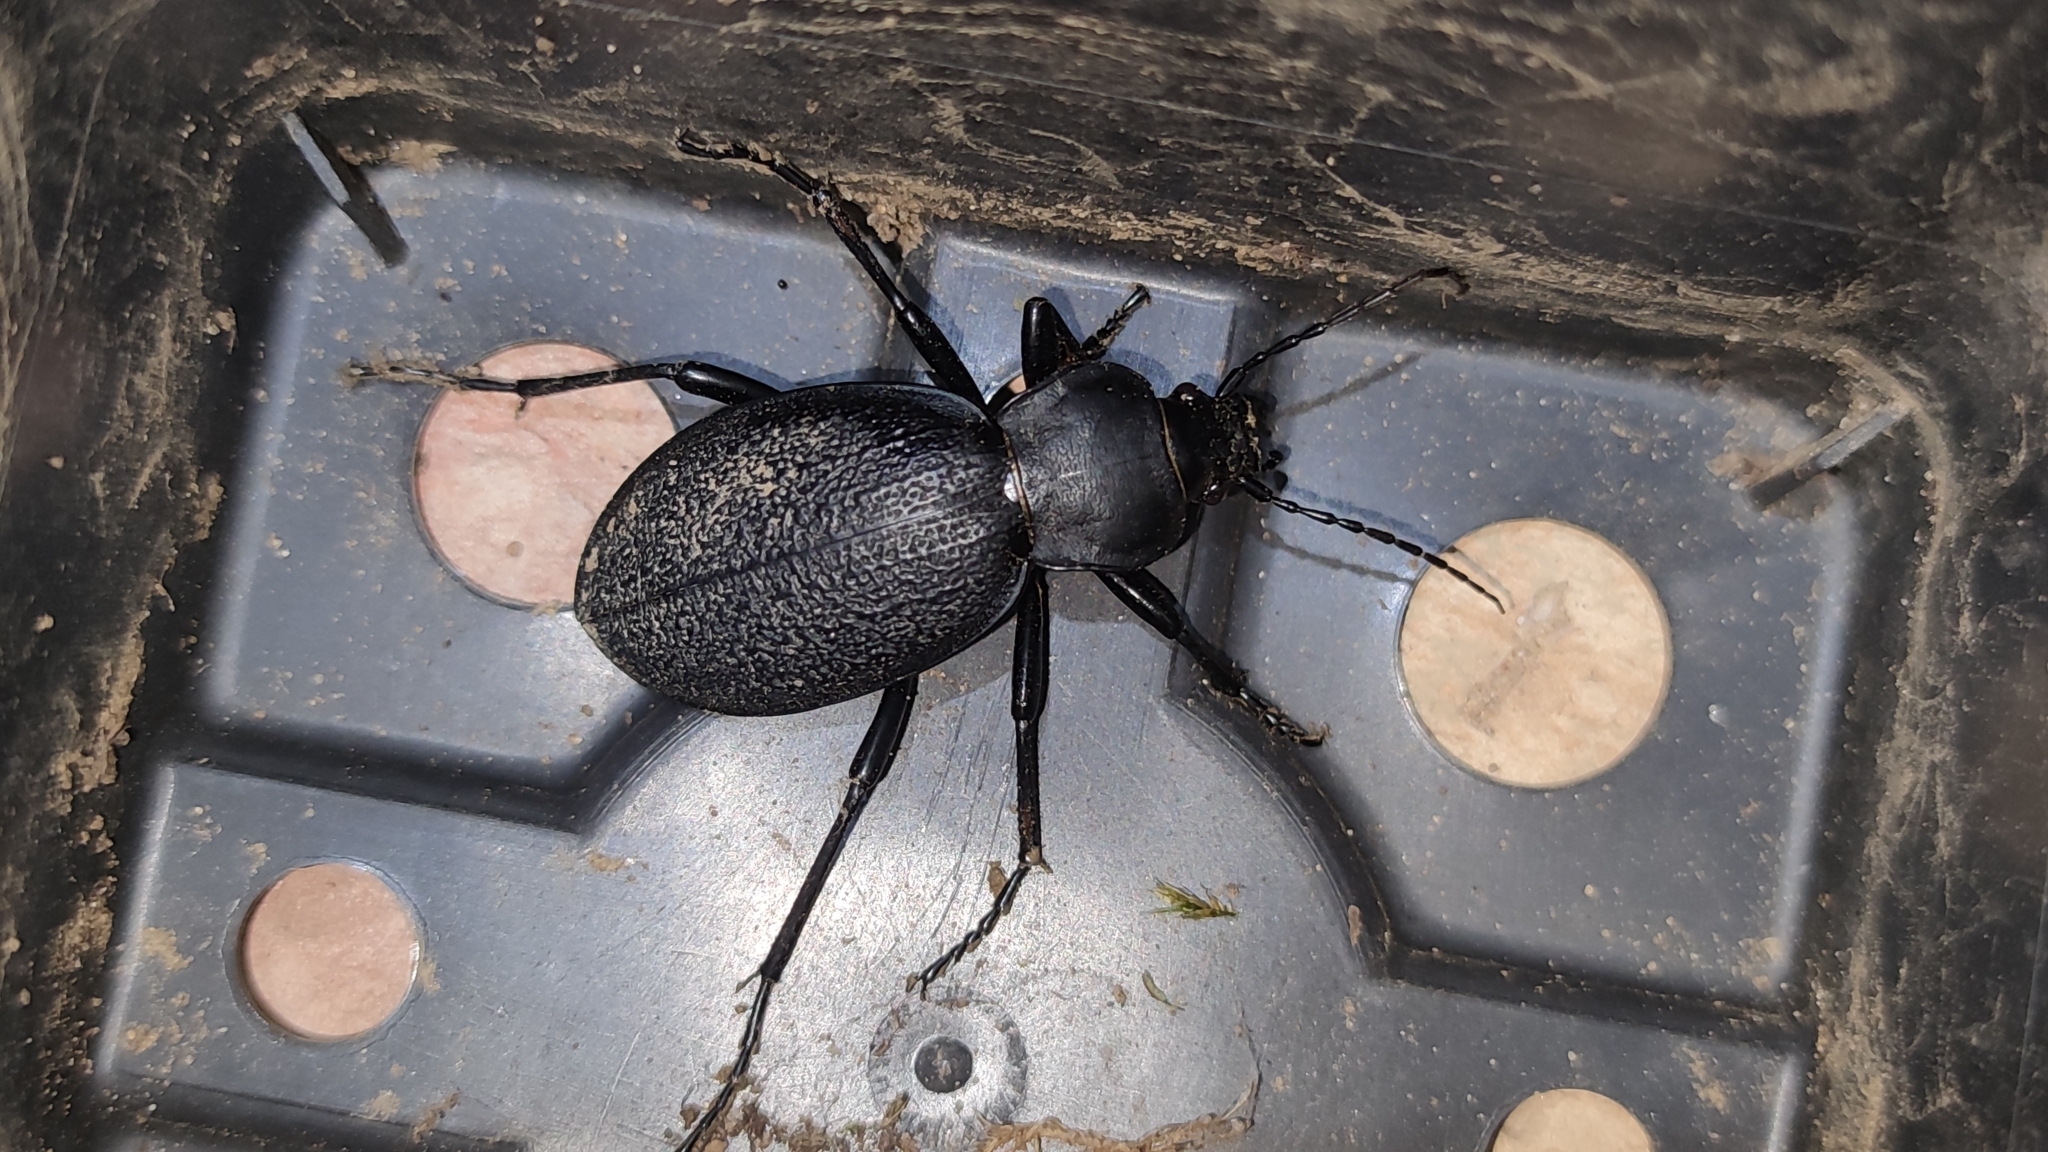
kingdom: Animalia
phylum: Arthropoda
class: Insecta
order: Coleoptera
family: Carabidae
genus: Carabus
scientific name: Carabus coriaceus
